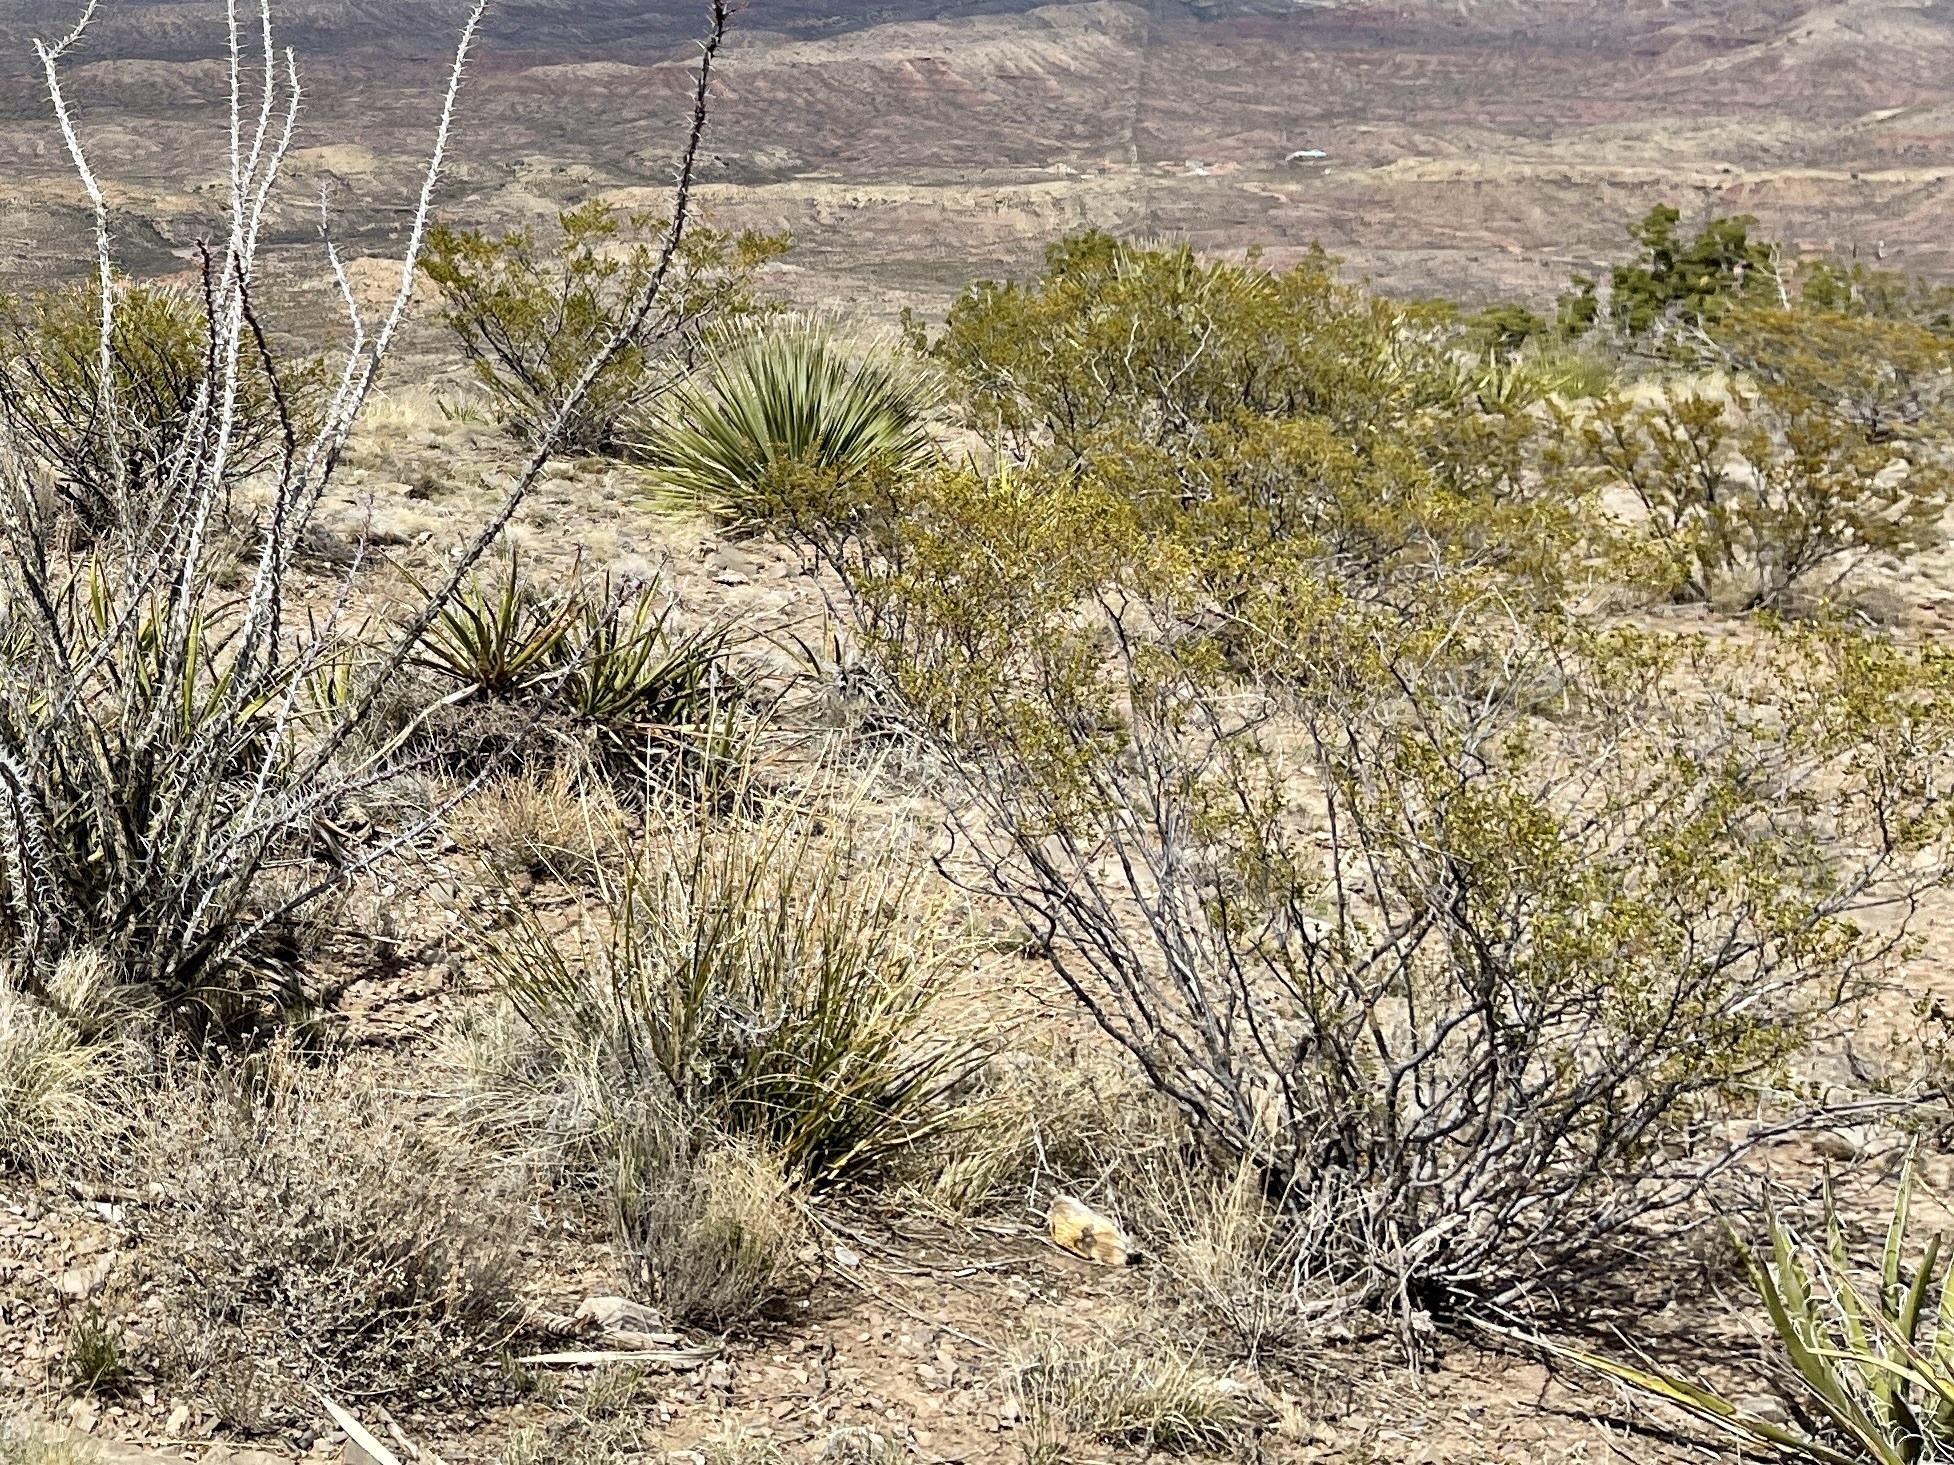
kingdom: Plantae
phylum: Tracheophyta
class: Magnoliopsida
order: Zygophyllales
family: Zygophyllaceae
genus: Larrea
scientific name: Larrea tridentata
